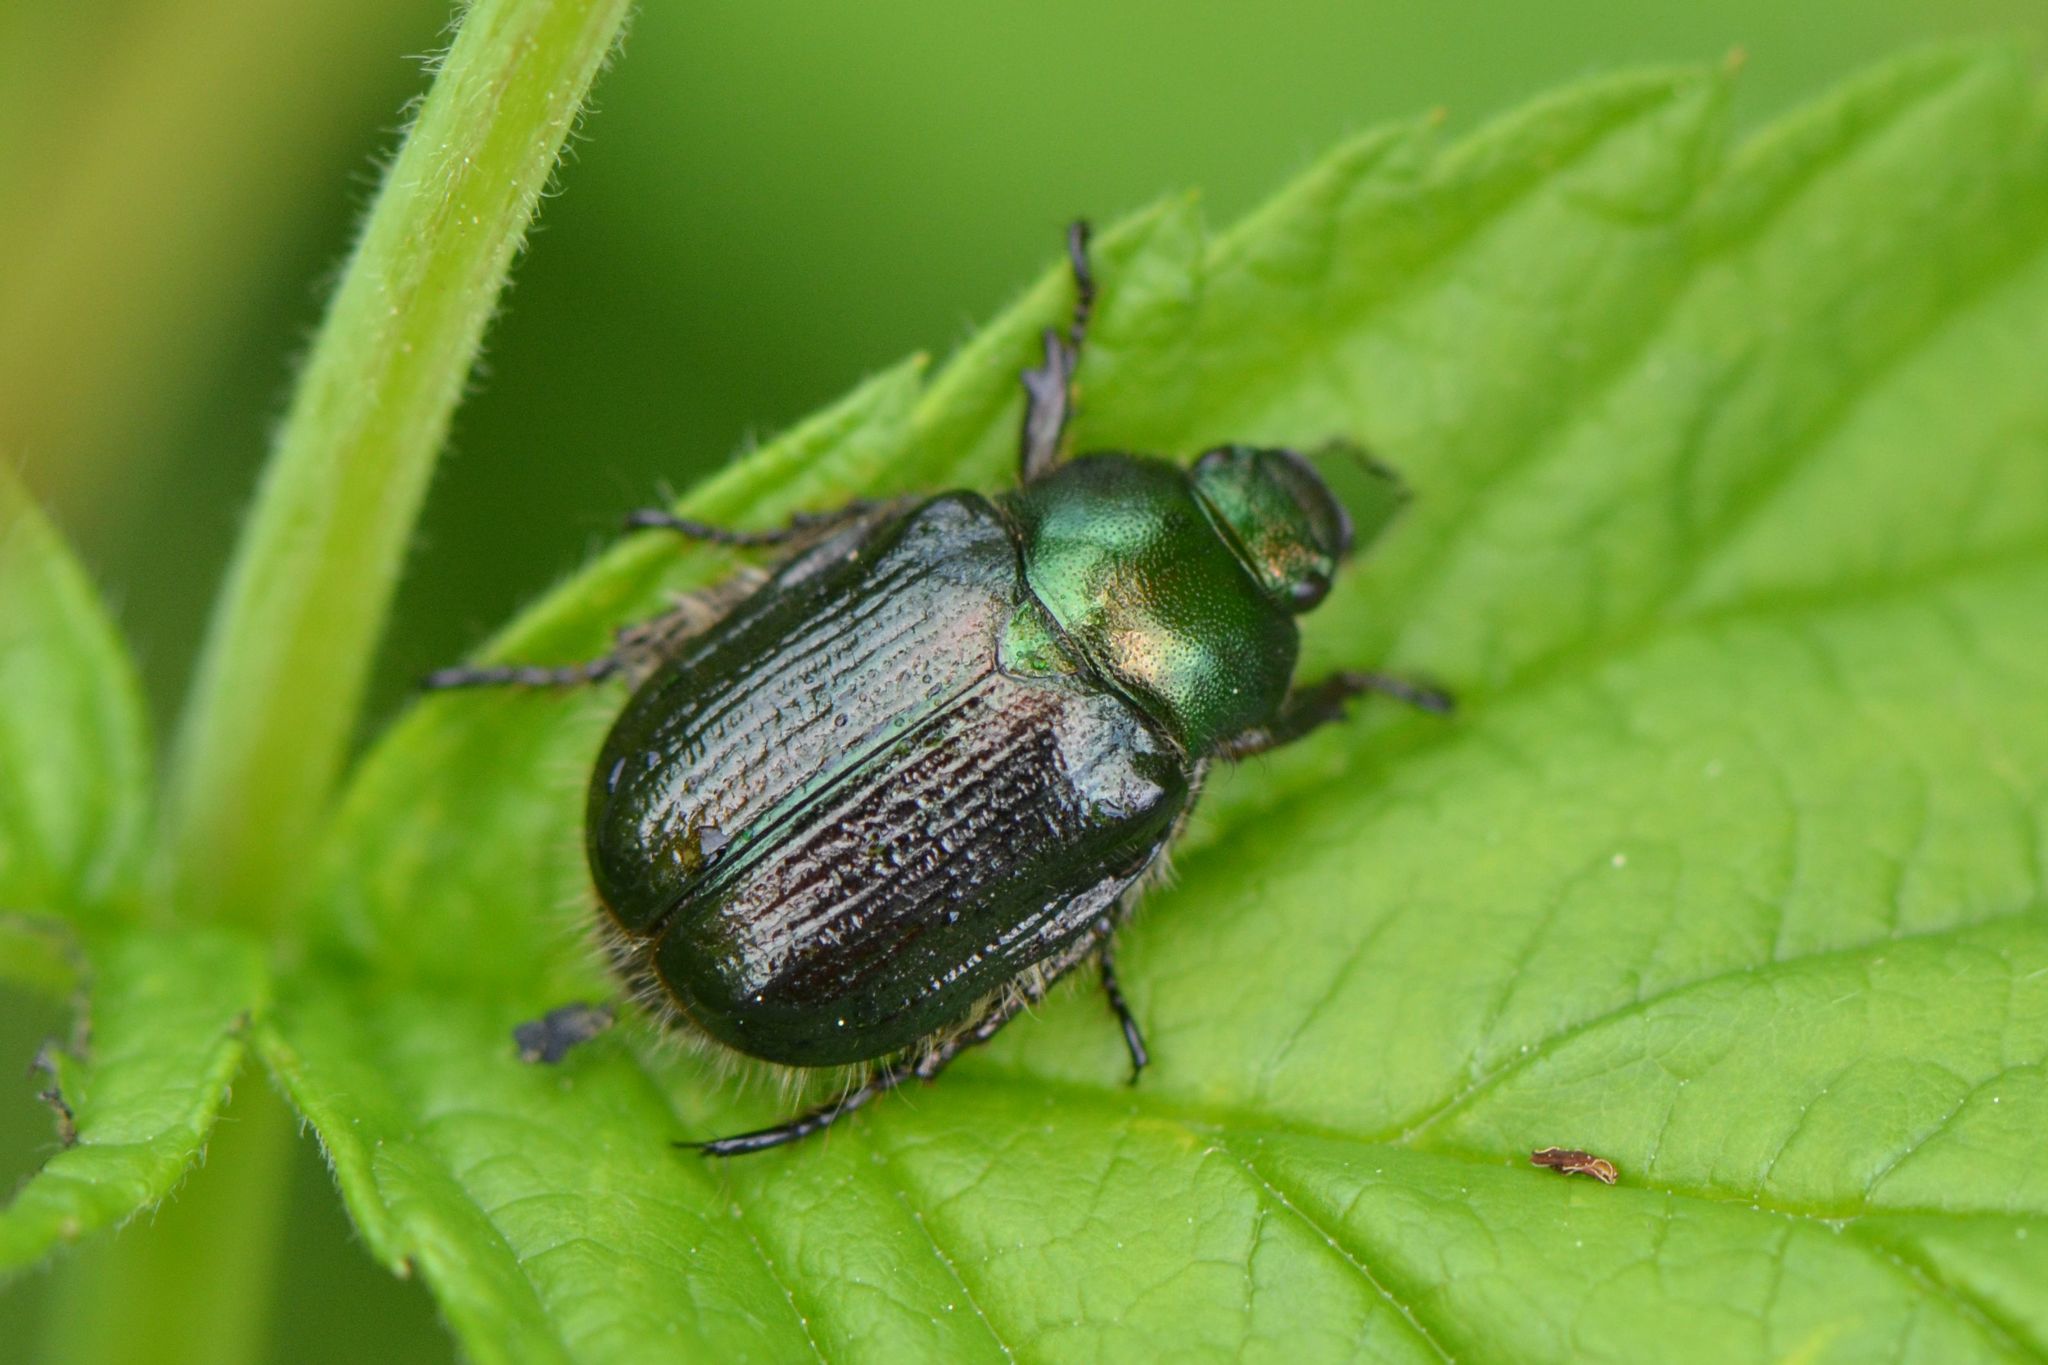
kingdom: Animalia
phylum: Arthropoda
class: Insecta
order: Coleoptera
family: Scarabaeidae
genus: Phyllopertha
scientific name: Phyllopertha horticola
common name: Garden chafer
